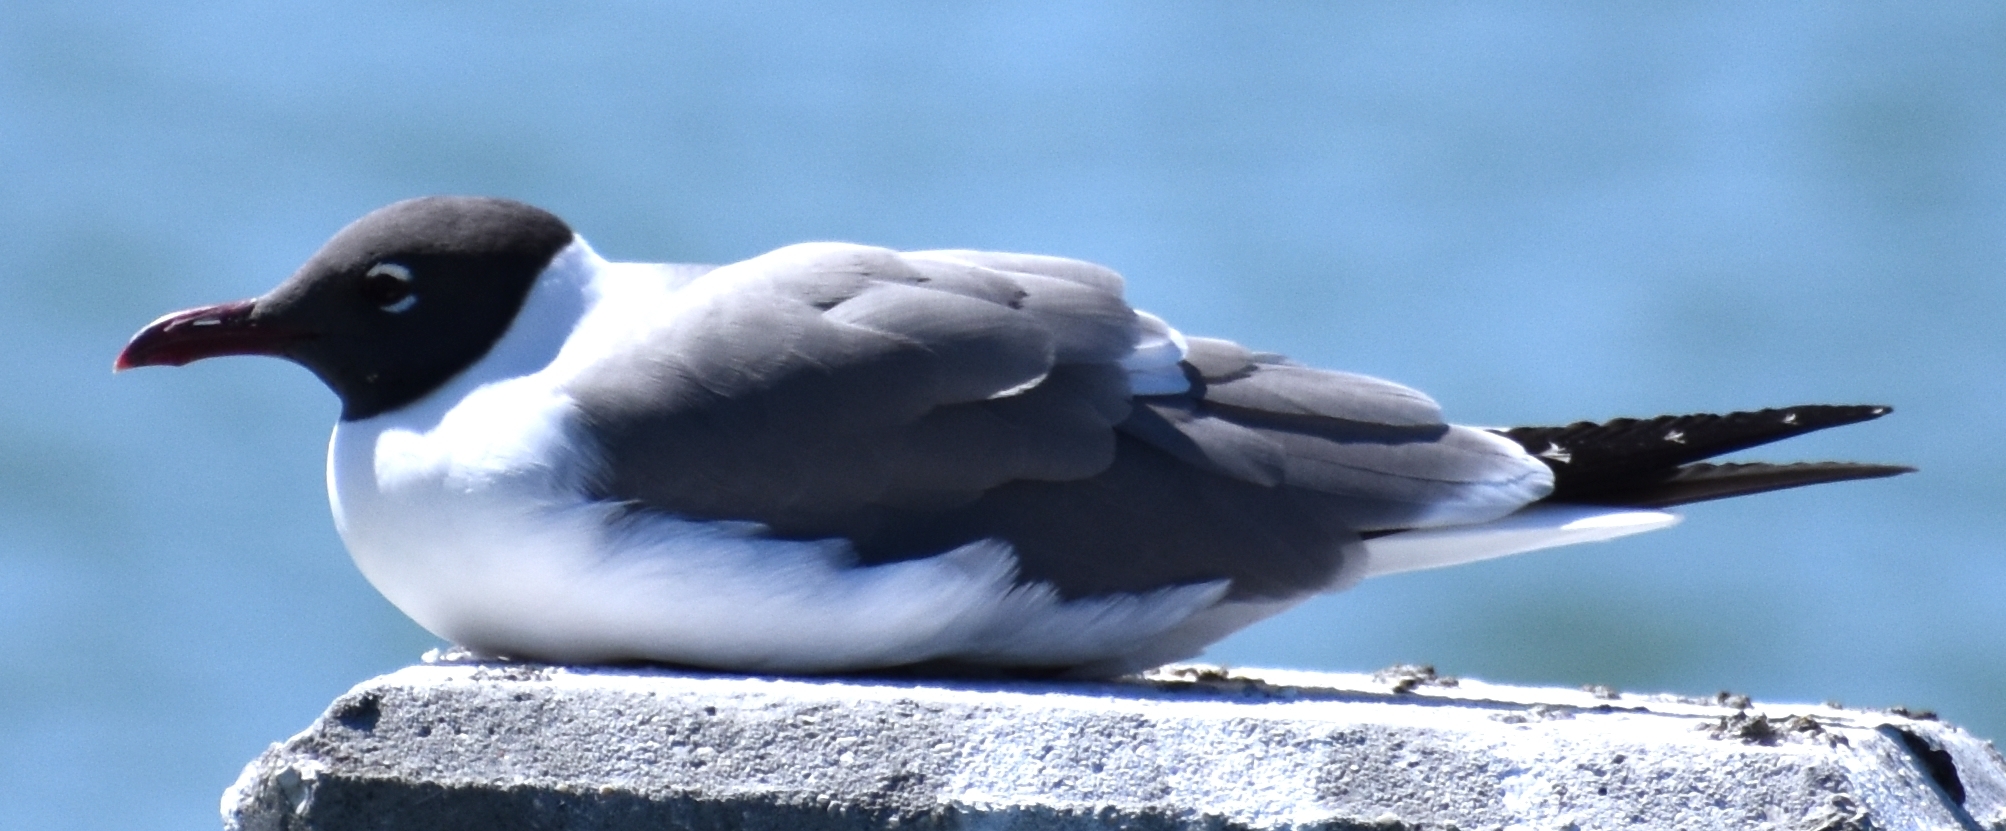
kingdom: Animalia
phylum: Chordata
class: Aves
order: Charadriiformes
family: Laridae
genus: Leucophaeus
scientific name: Leucophaeus atricilla
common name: Laughing gull
